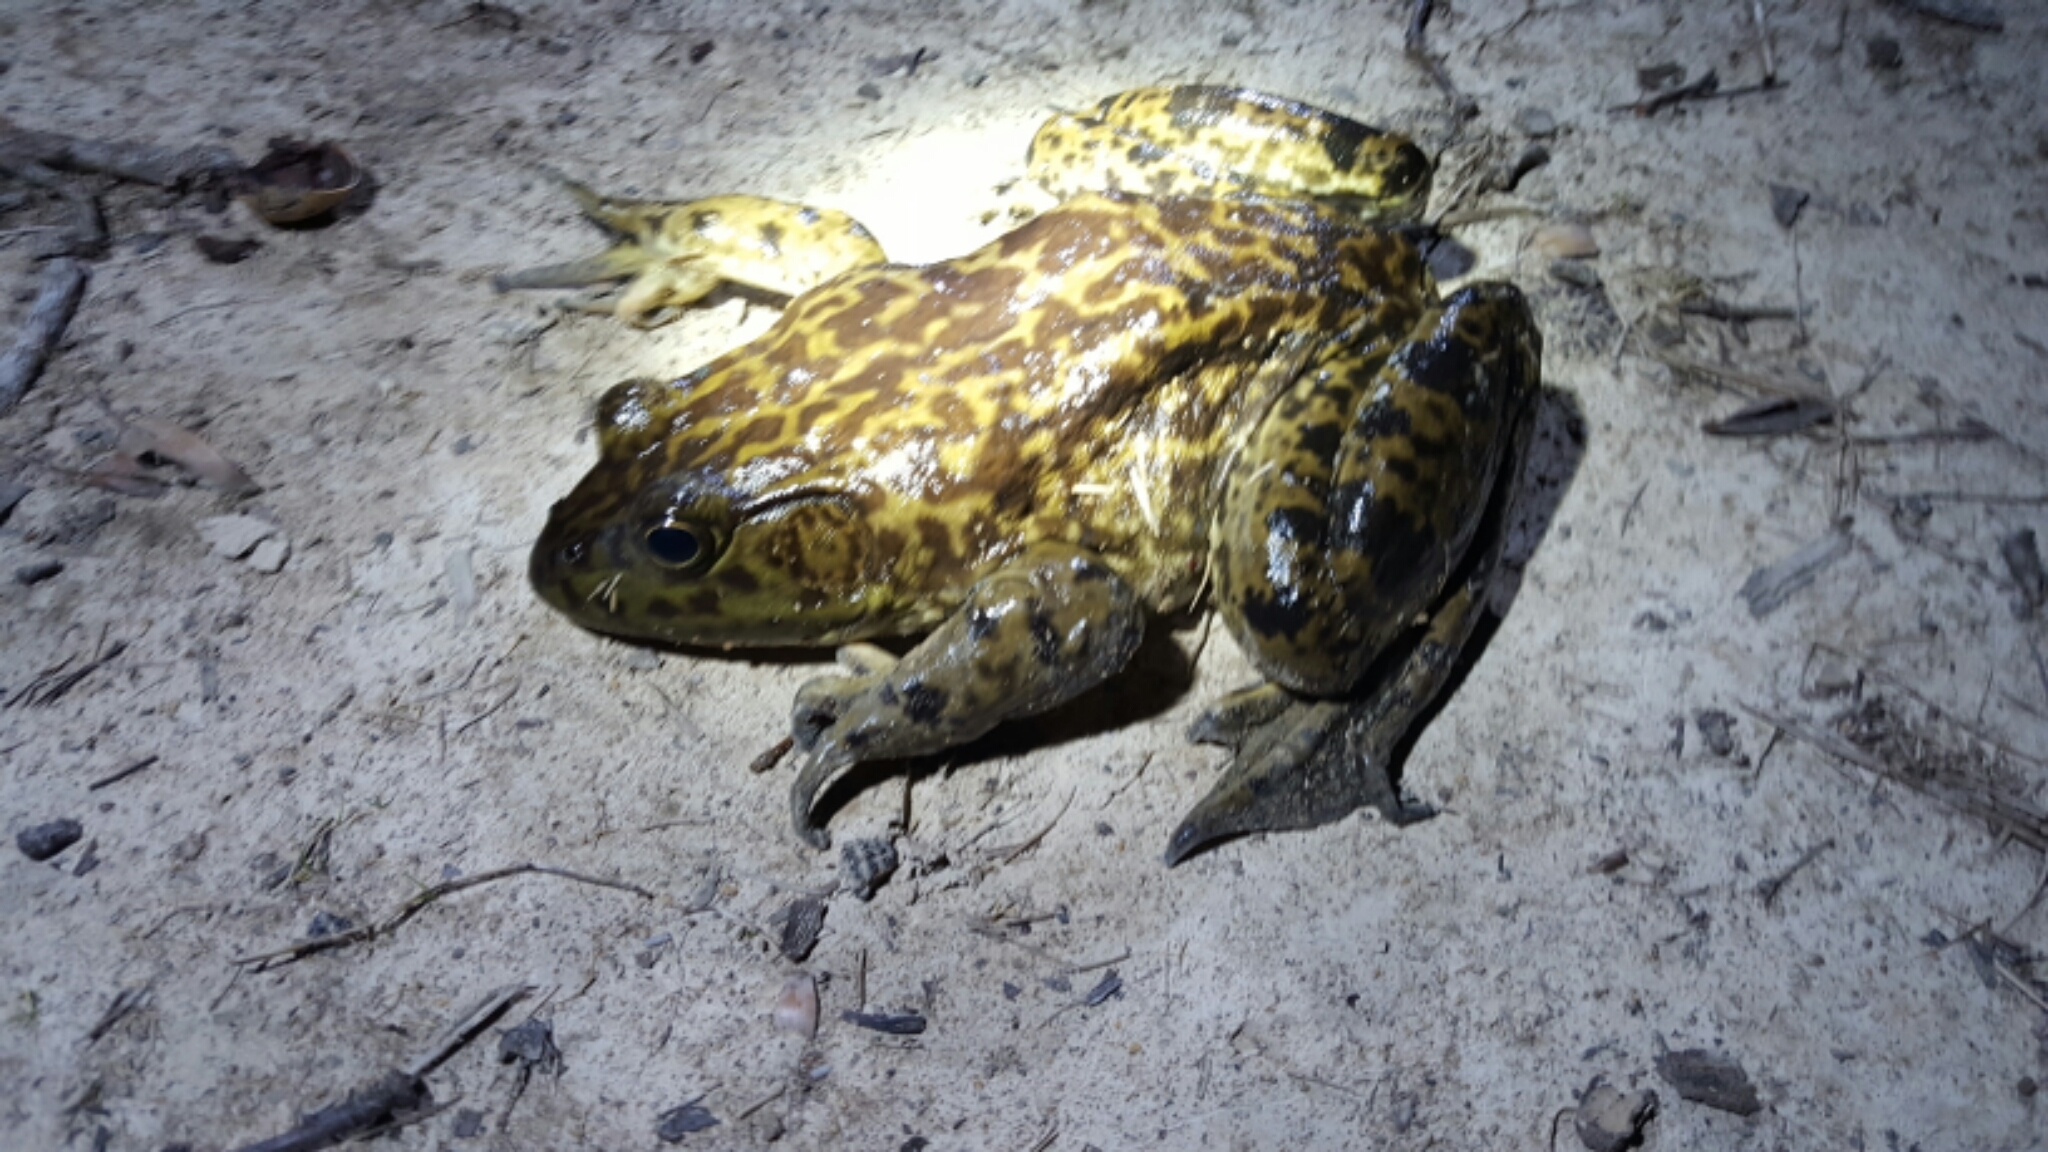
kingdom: Animalia
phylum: Chordata
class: Amphibia
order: Anura
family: Ranidae
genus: Lithobates
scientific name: Lithobates catesbeianus
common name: American bullfrog
